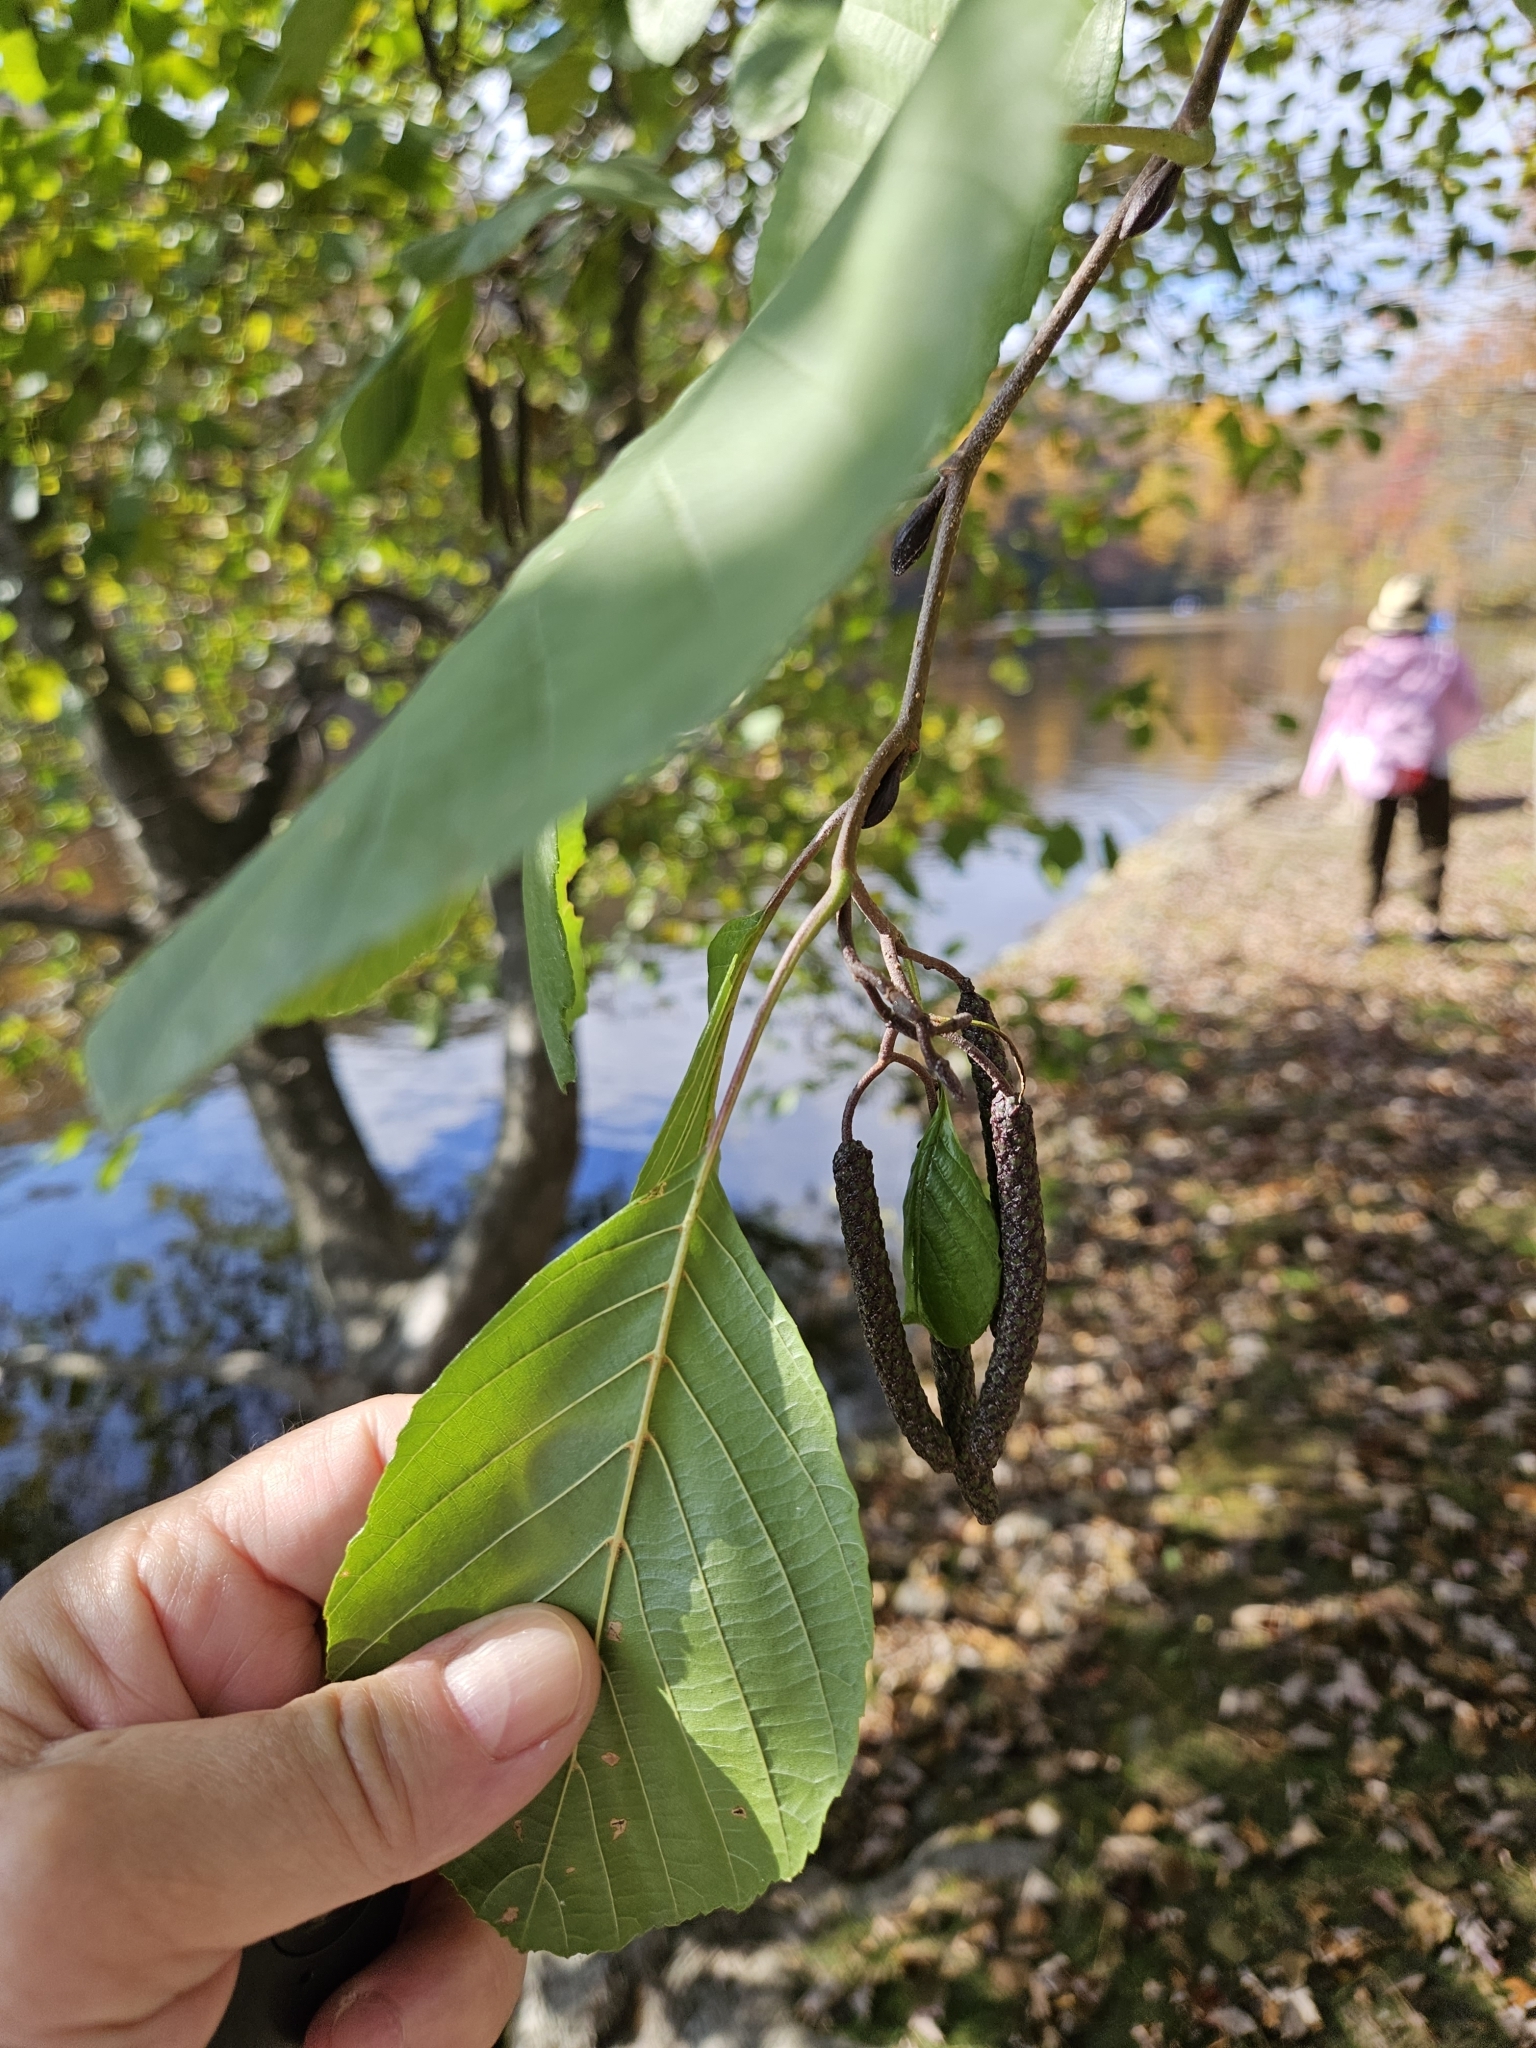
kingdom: Plantae
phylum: Tracheophyta
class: Magnoliopsida
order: Fagales
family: Betulaceae
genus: Alnus
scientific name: Alnus glutinosa
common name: Black alder
